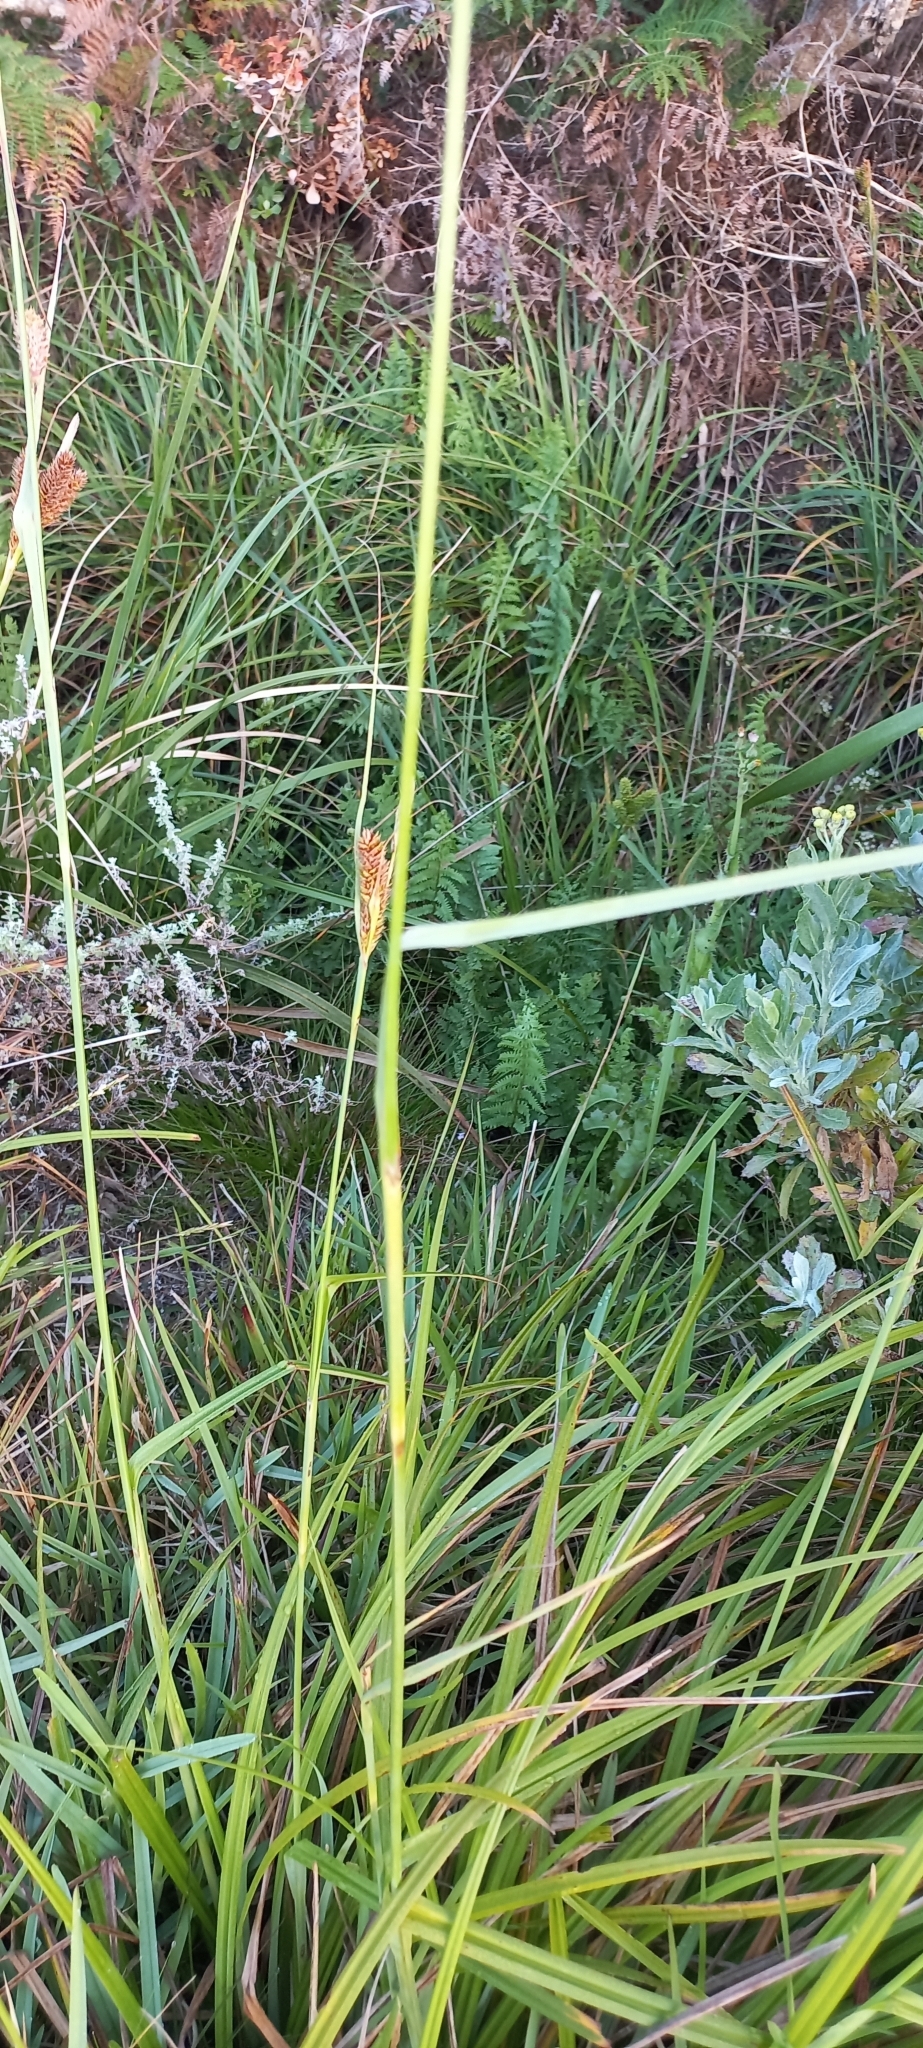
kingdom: Plantae
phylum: Tracheophyta
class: Liliopsida
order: Poales
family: Cyperaceae
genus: Cyperus
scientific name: Cyperus thunbergii
